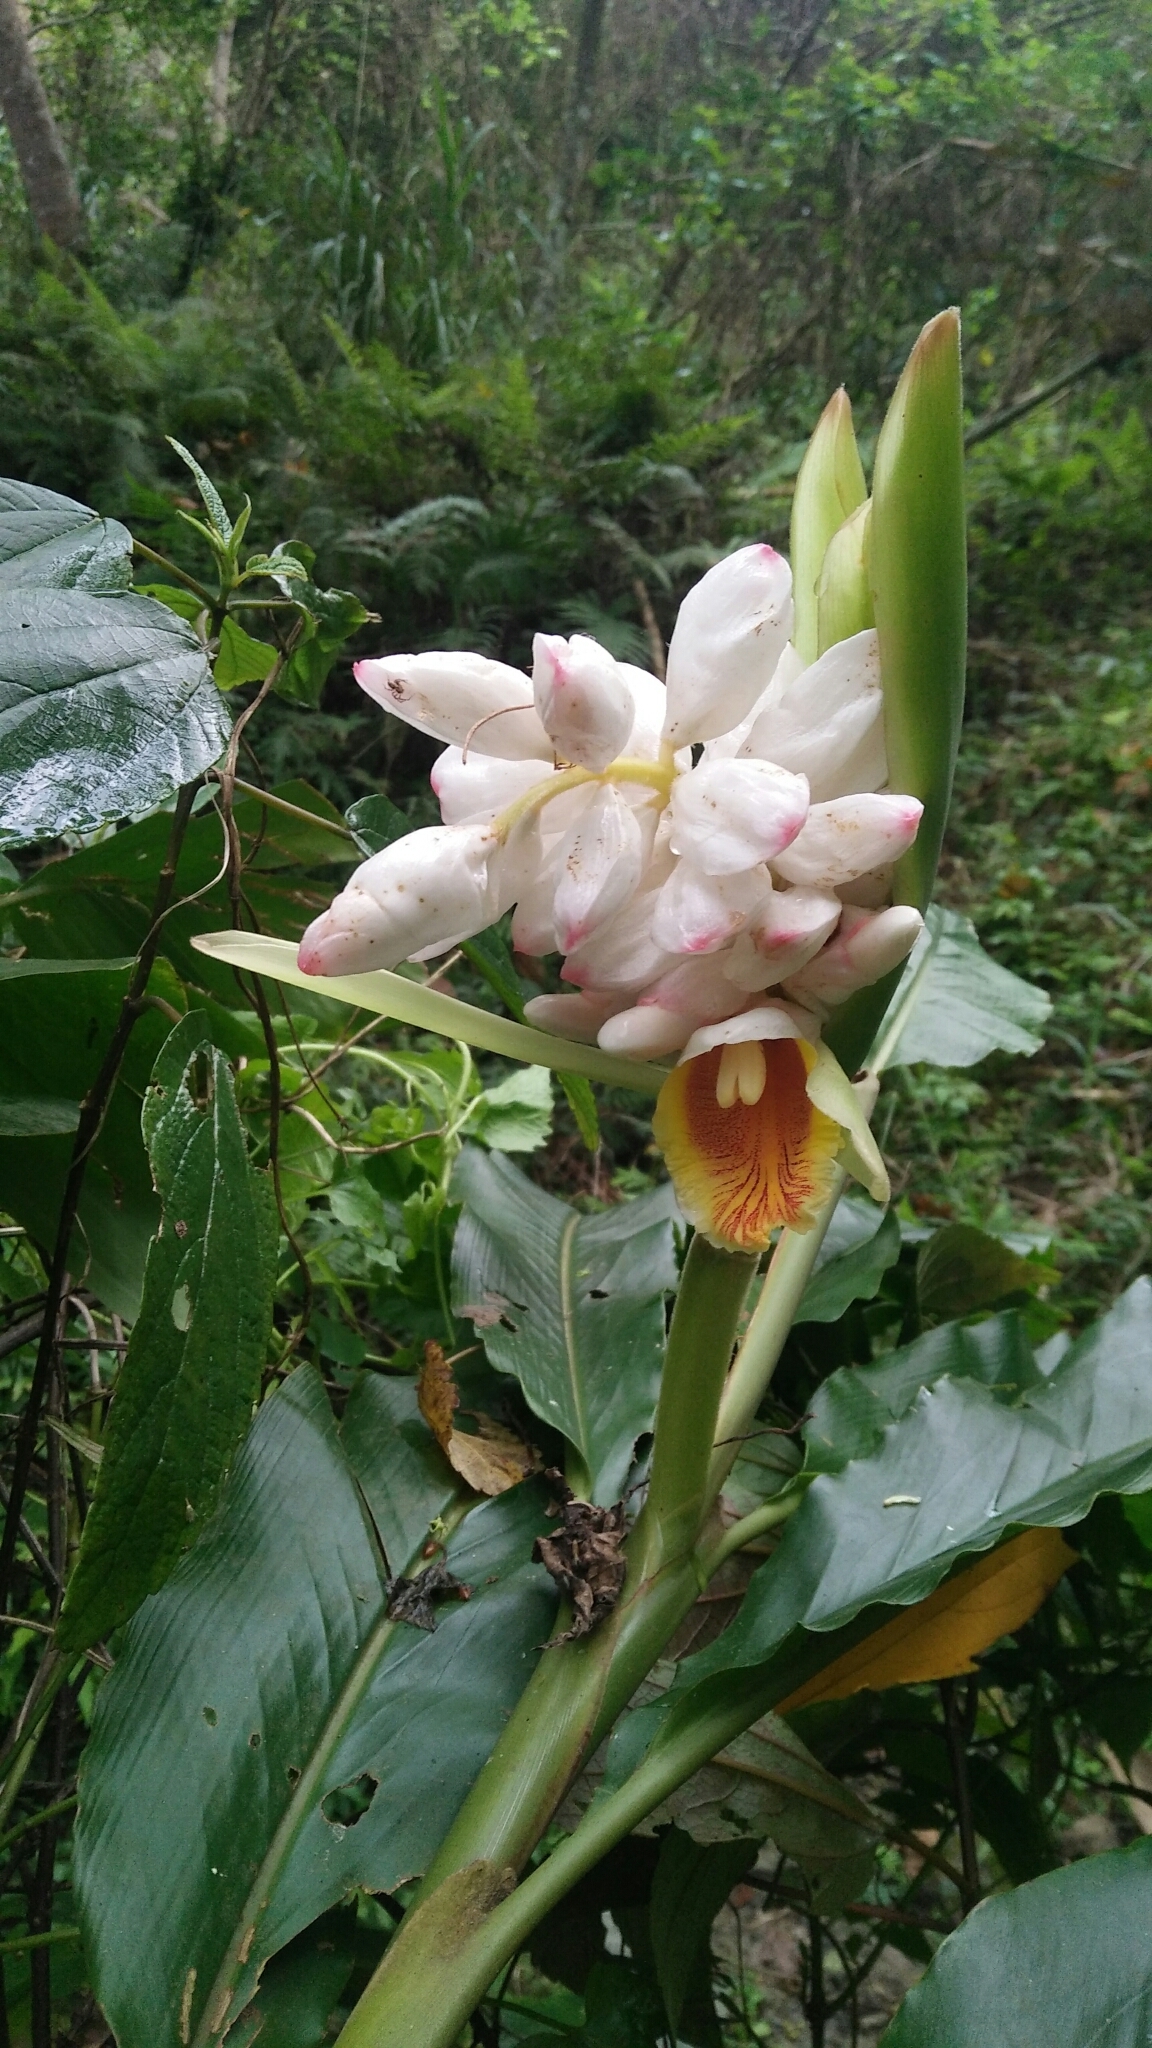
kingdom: Plantae
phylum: Tracheophyta
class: Liliopsida
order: Zingiberales
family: Zingiberaceae
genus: Alpinia
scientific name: Alpinia uraiensis
